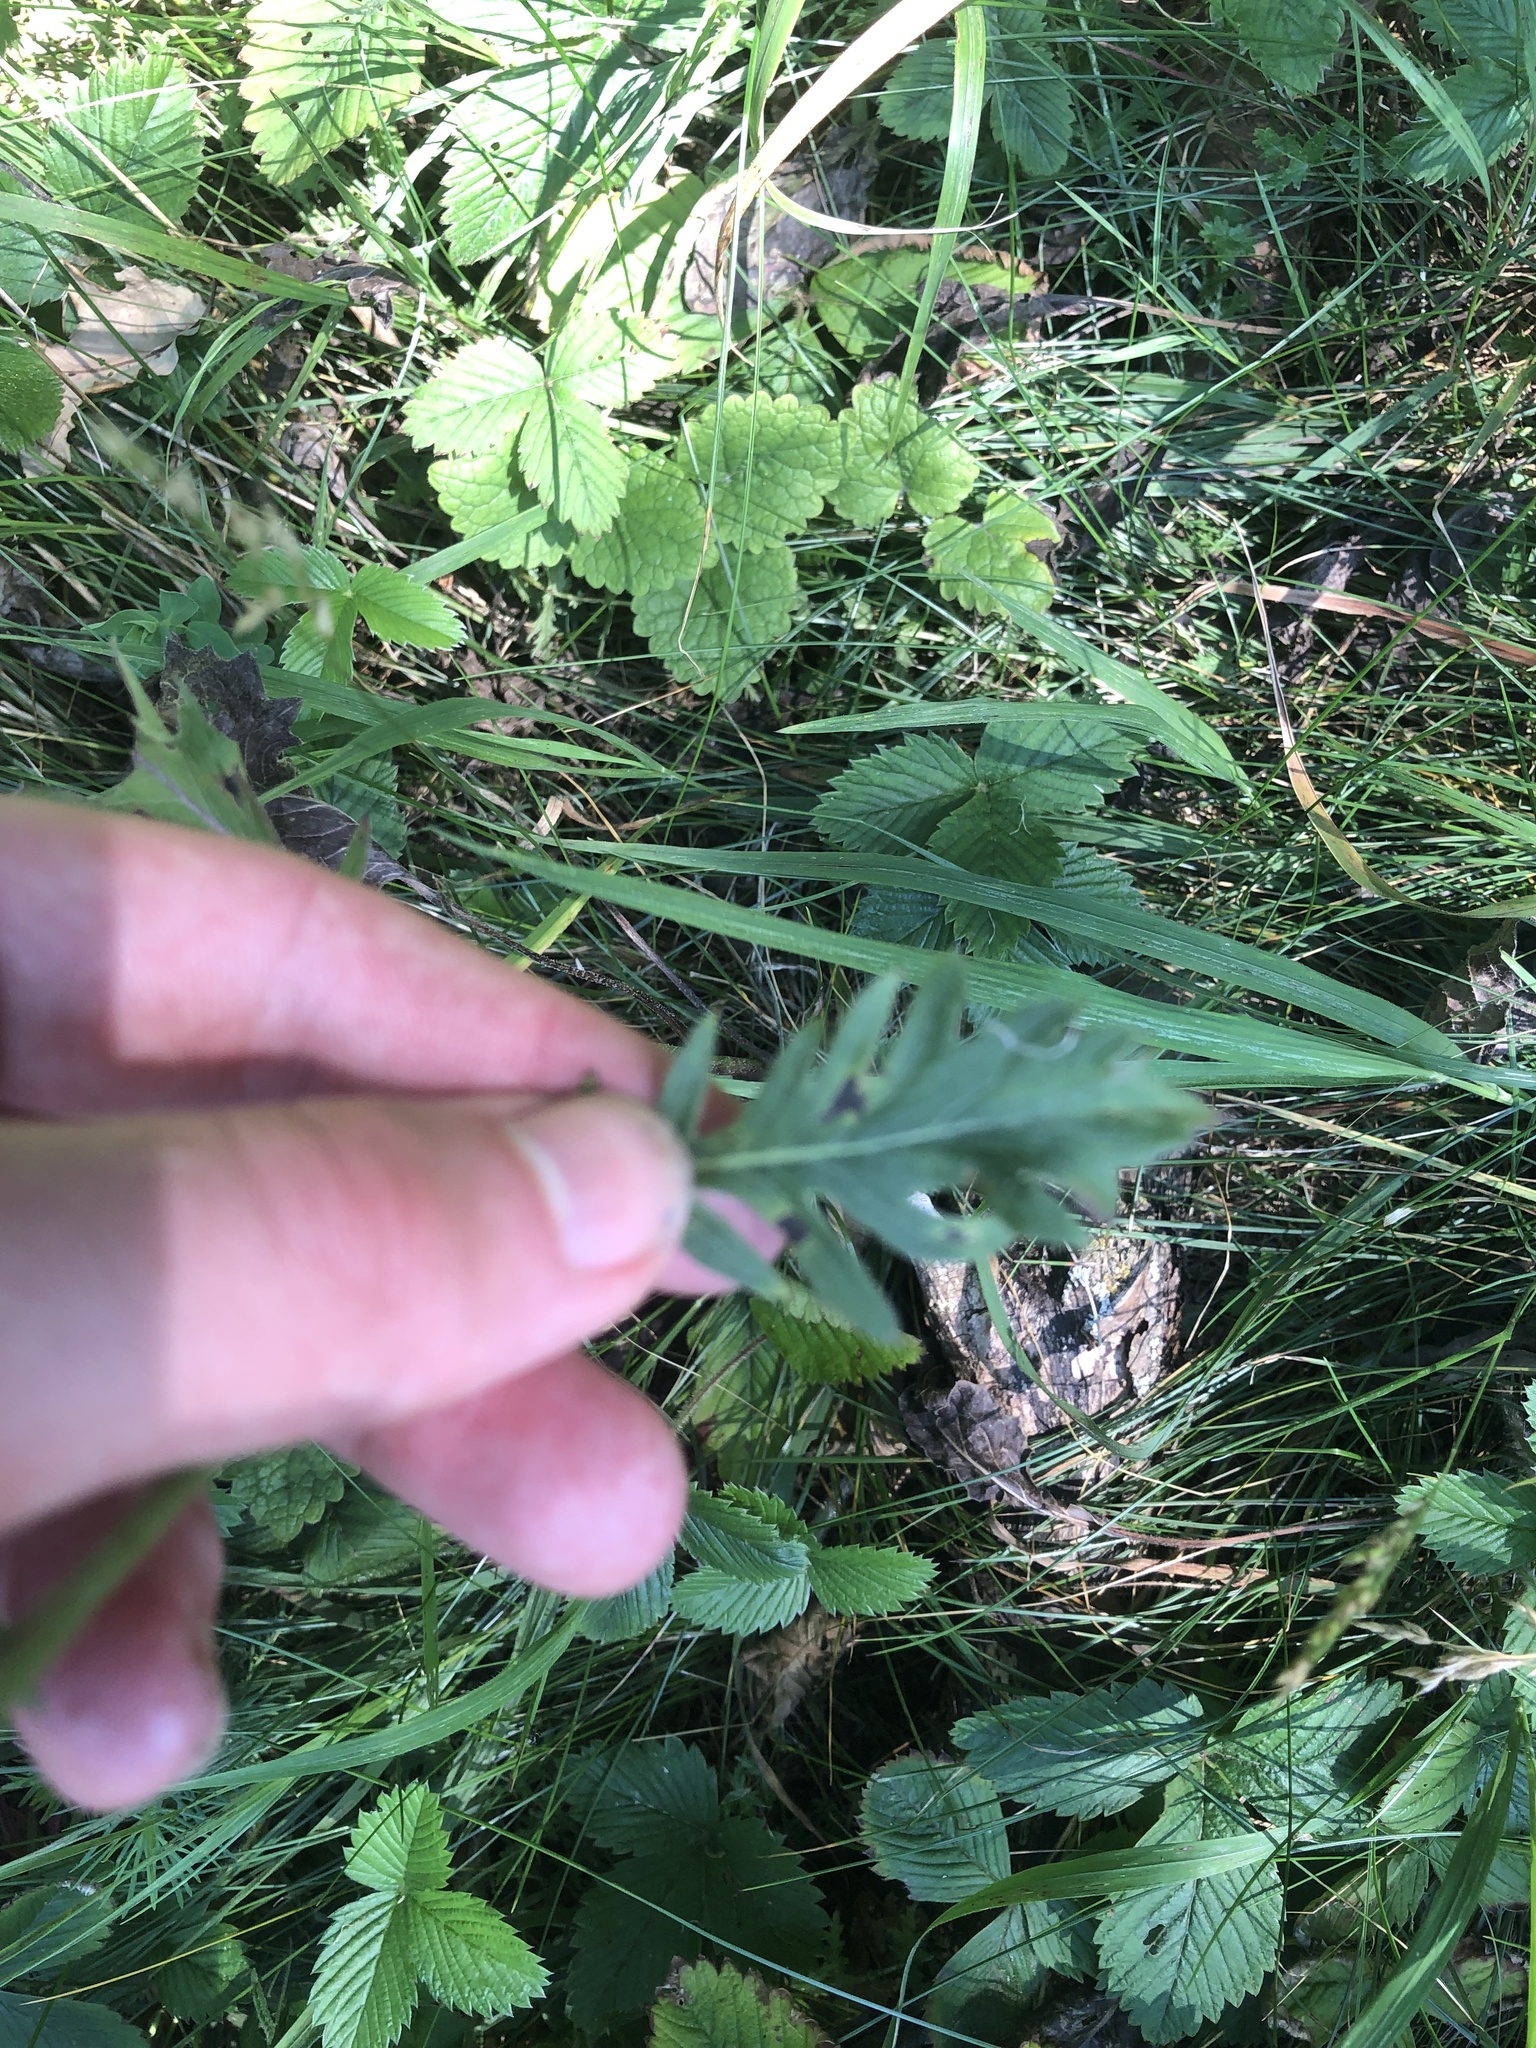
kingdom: Plantae
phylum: Tracheophyta
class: Magnoliopsida
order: Dipsacales
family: Caprifoliaceae
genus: Knautia
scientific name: Knautia arvensis
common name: Field scabiosa
